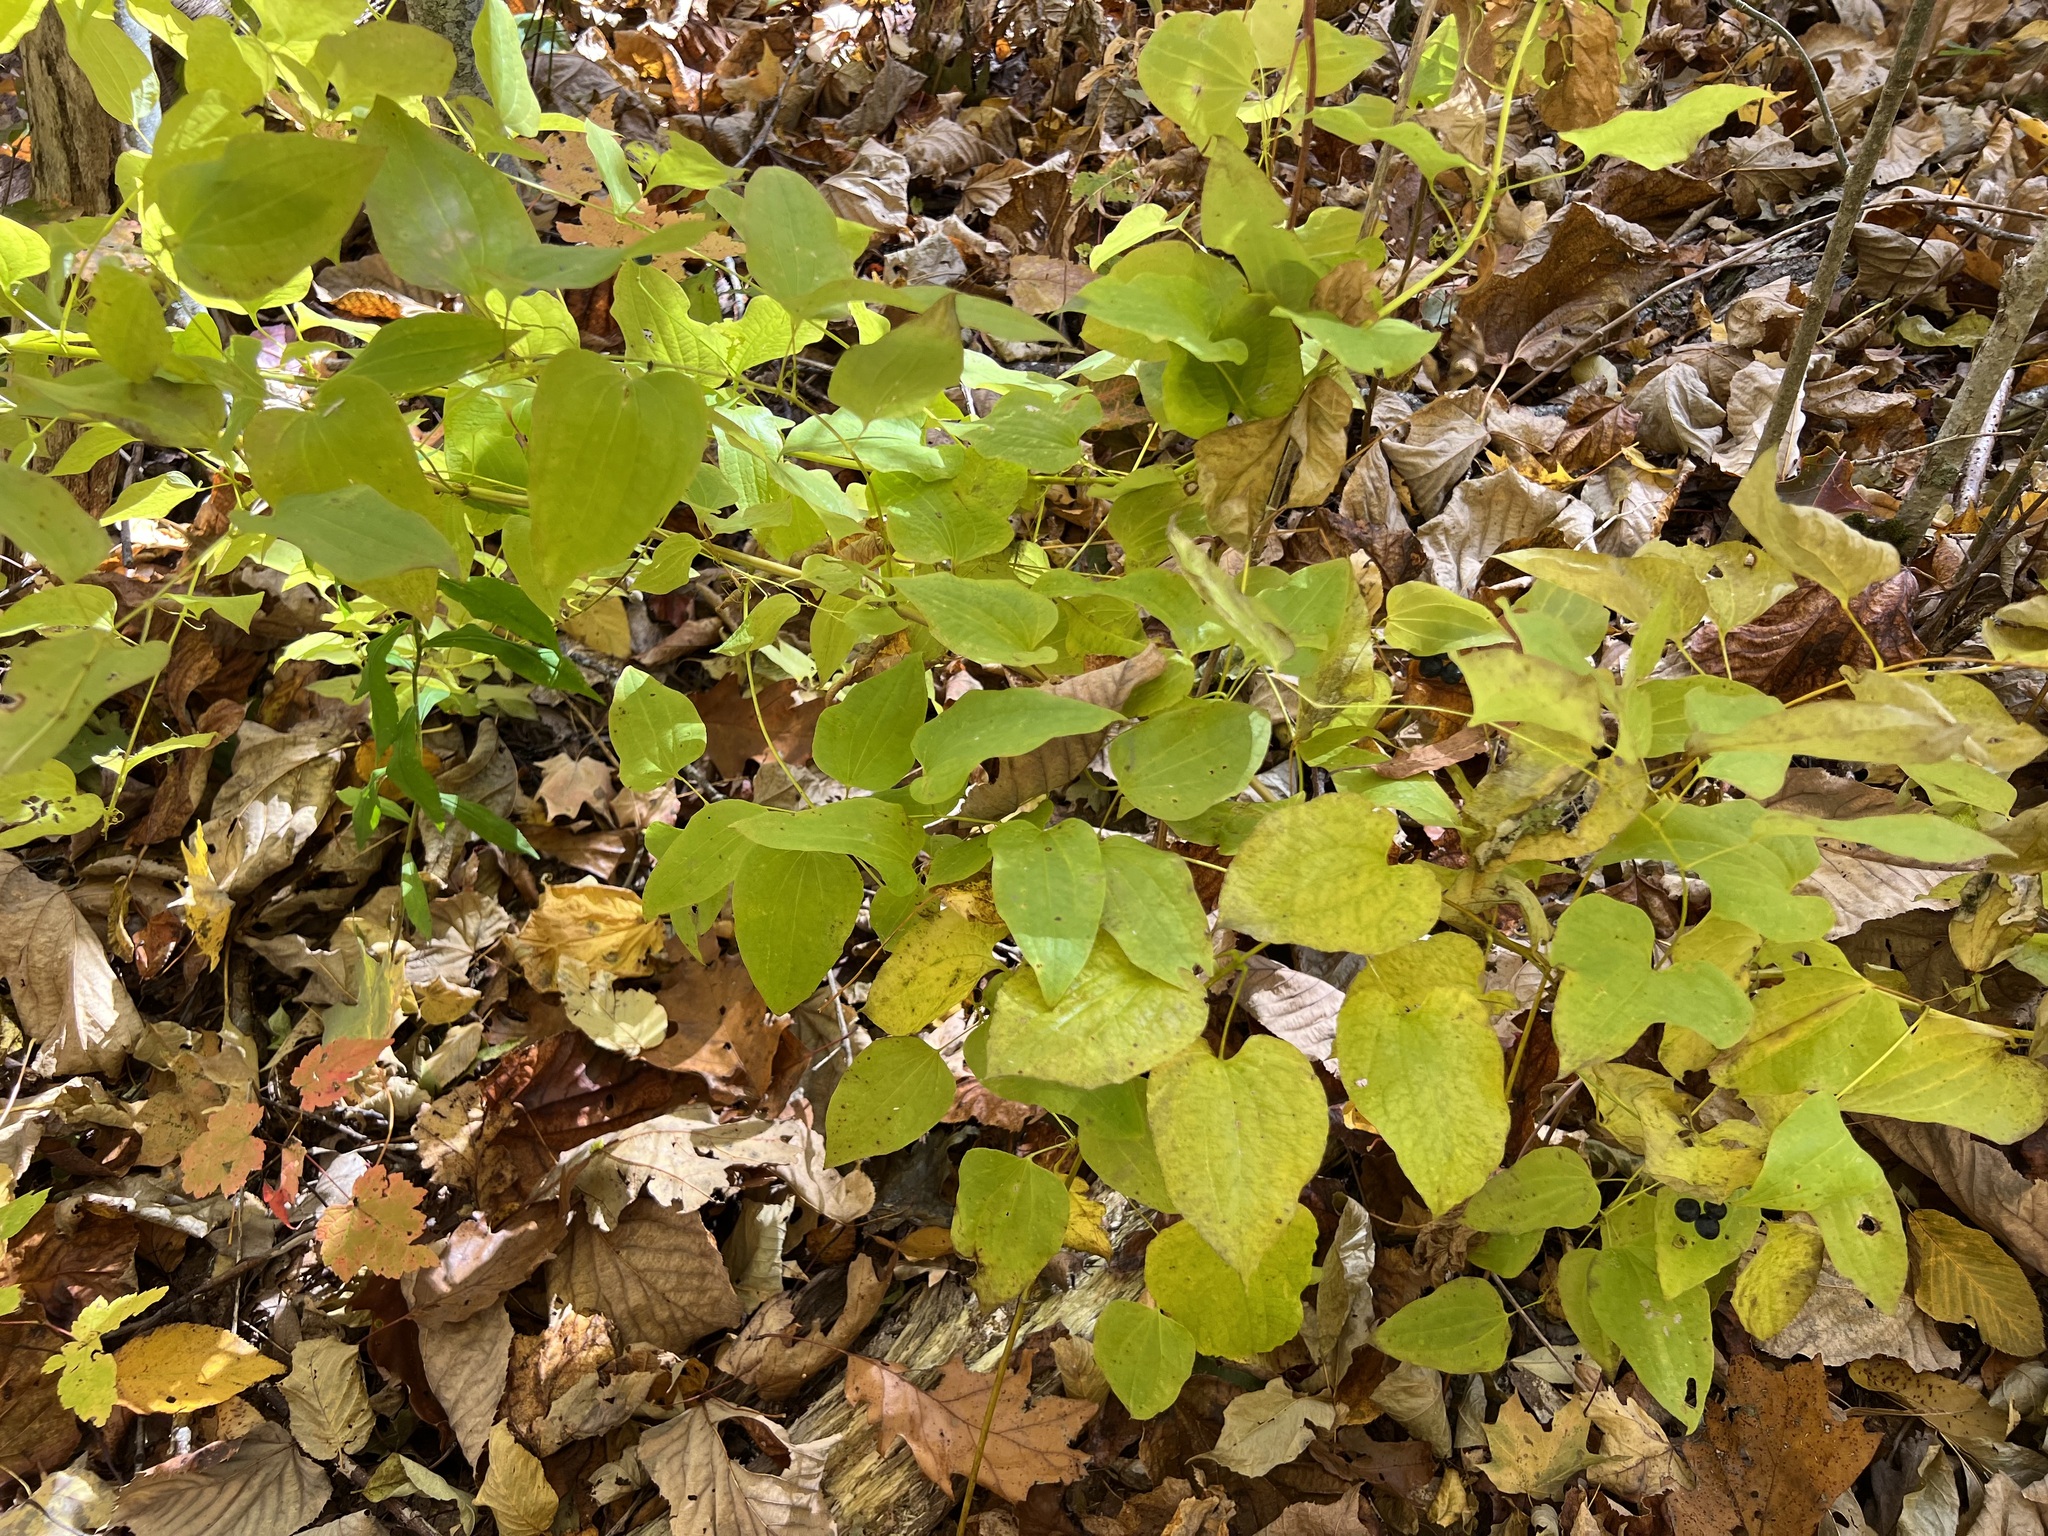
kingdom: Plantae
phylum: Tracheophyta
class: Liliopsida
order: Liliales
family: Smilacaceae
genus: Smilax
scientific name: Smilax herbacea
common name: Jacob's-ladder
